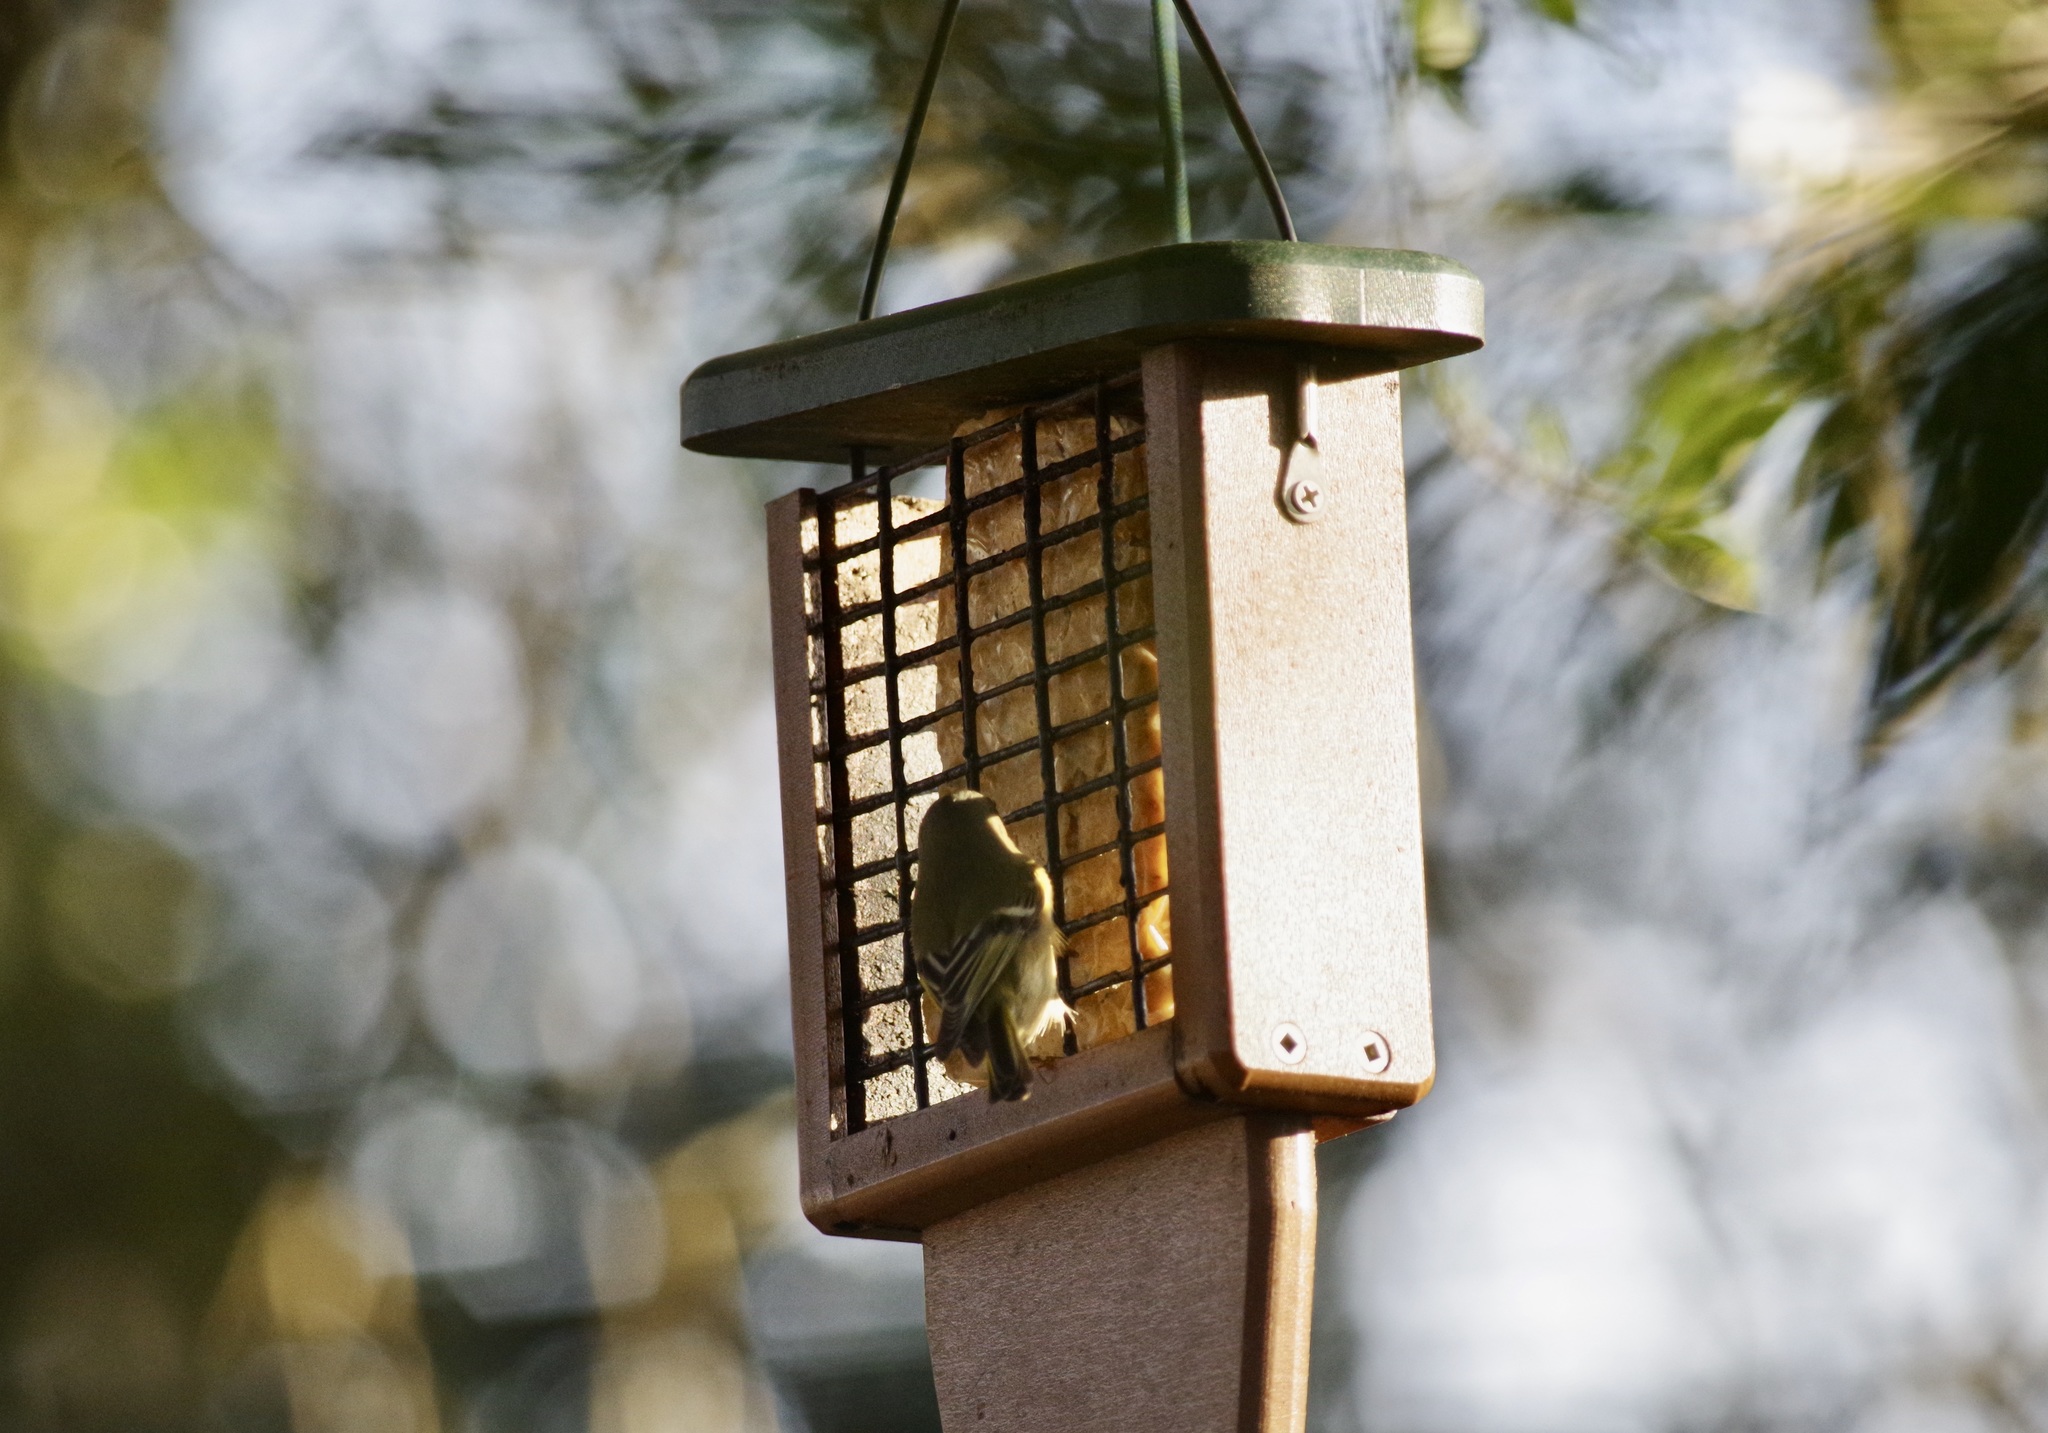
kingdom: Animalia
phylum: Chordata
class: Aves
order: Passeriformes
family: Regulidae
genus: Regulus
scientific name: Regulus calendula
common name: Ruby-crowned kinglet
